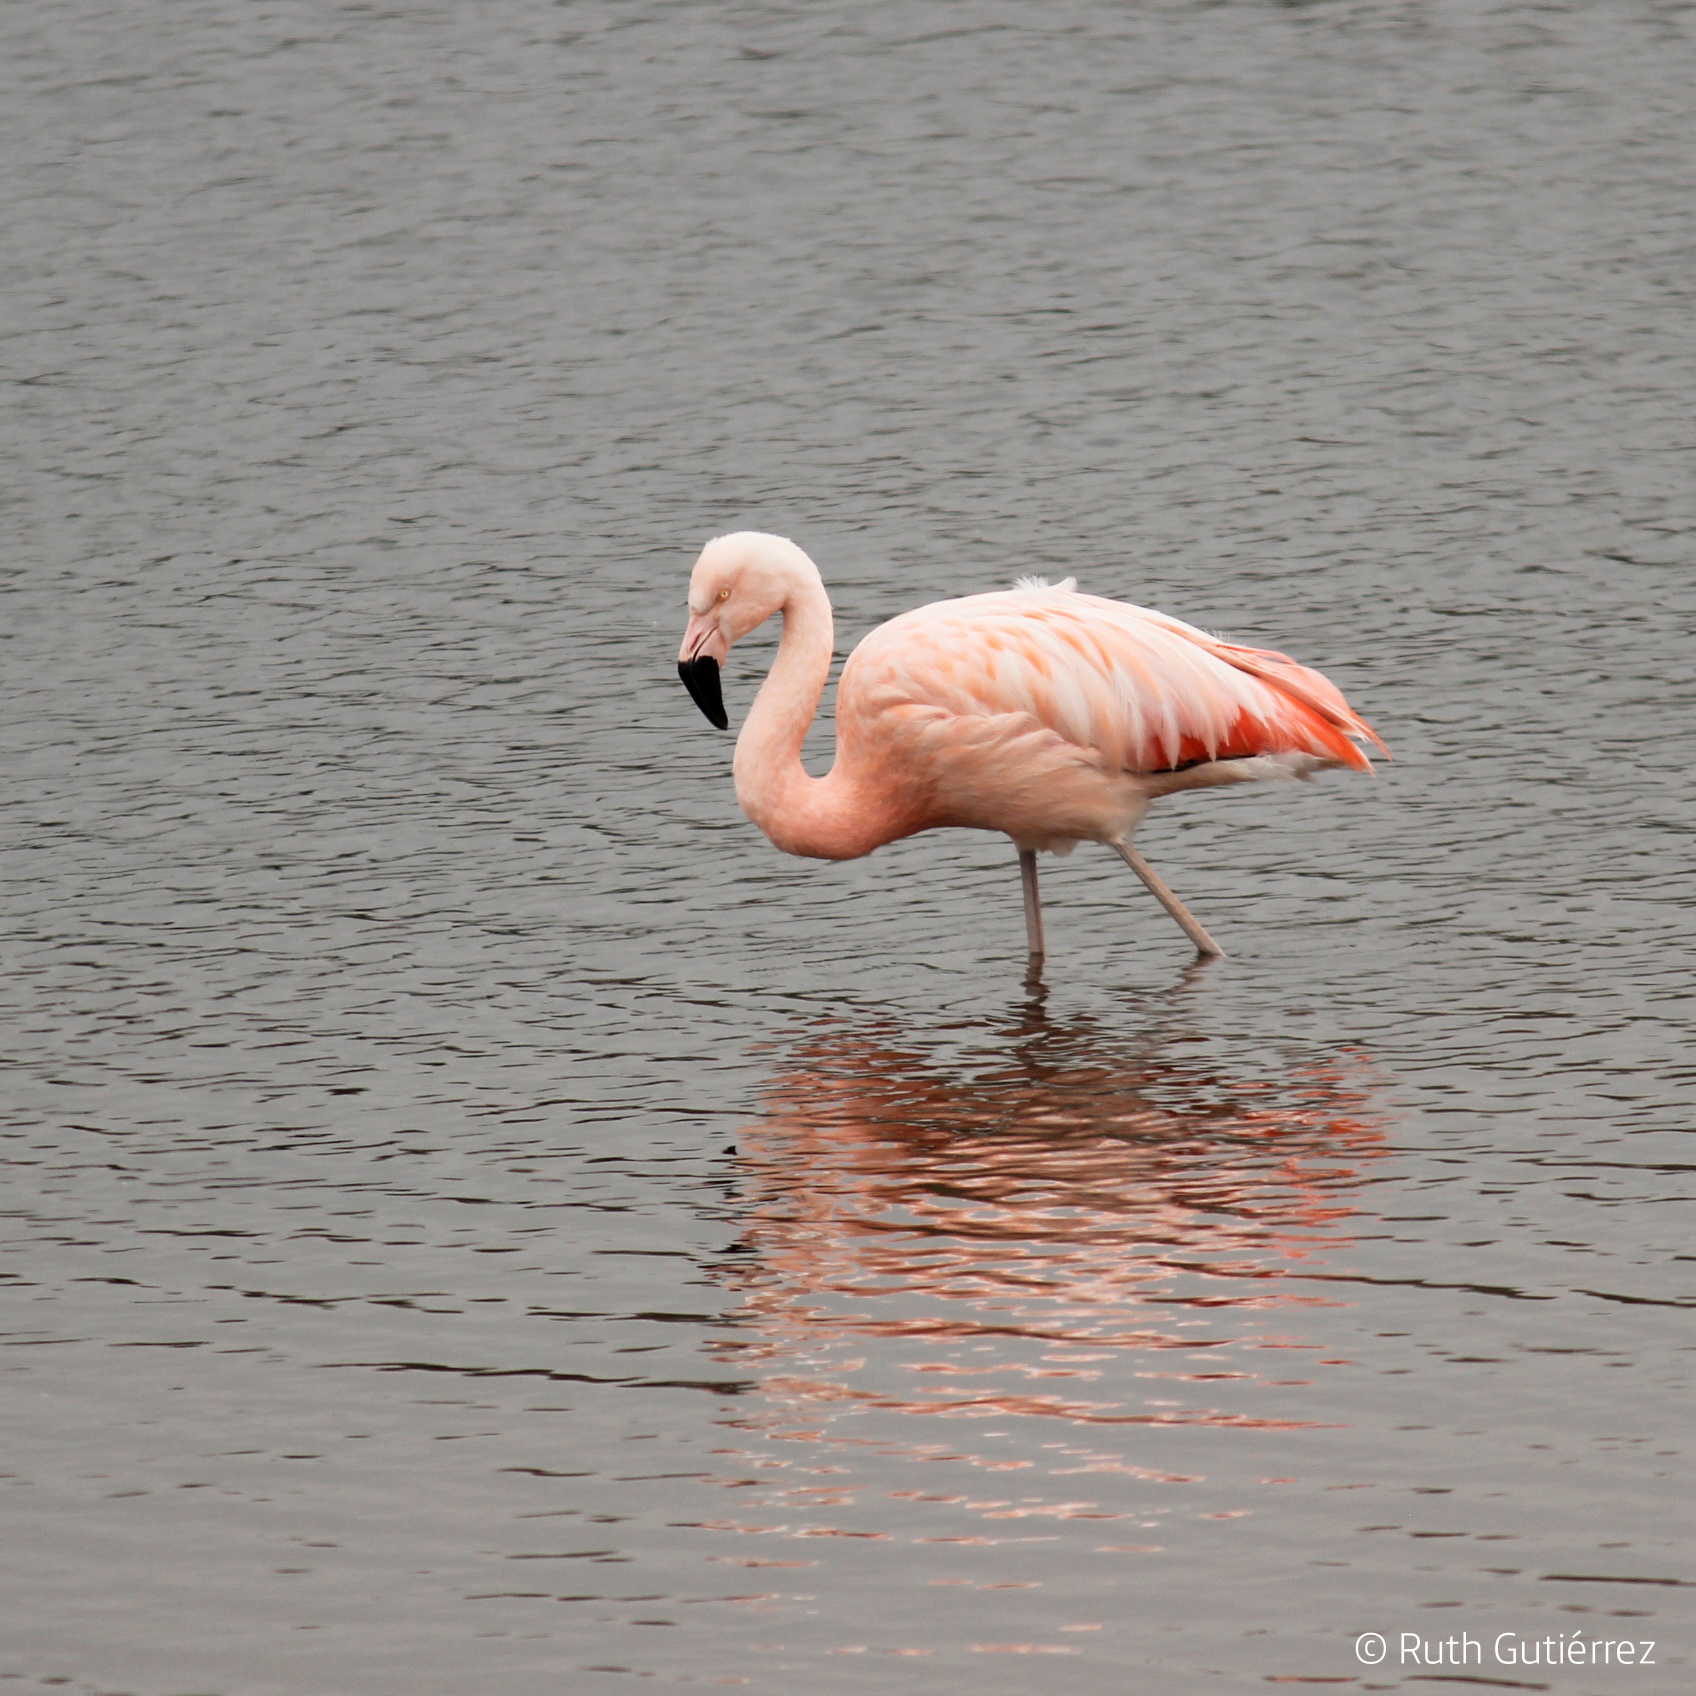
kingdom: Animalia
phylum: Chordata
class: Aves
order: Phoenicopteriformes
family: Phoenicopteridae
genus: Phoenicopterus
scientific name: Phoenicopterus chilensis
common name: Chilean flamingo
